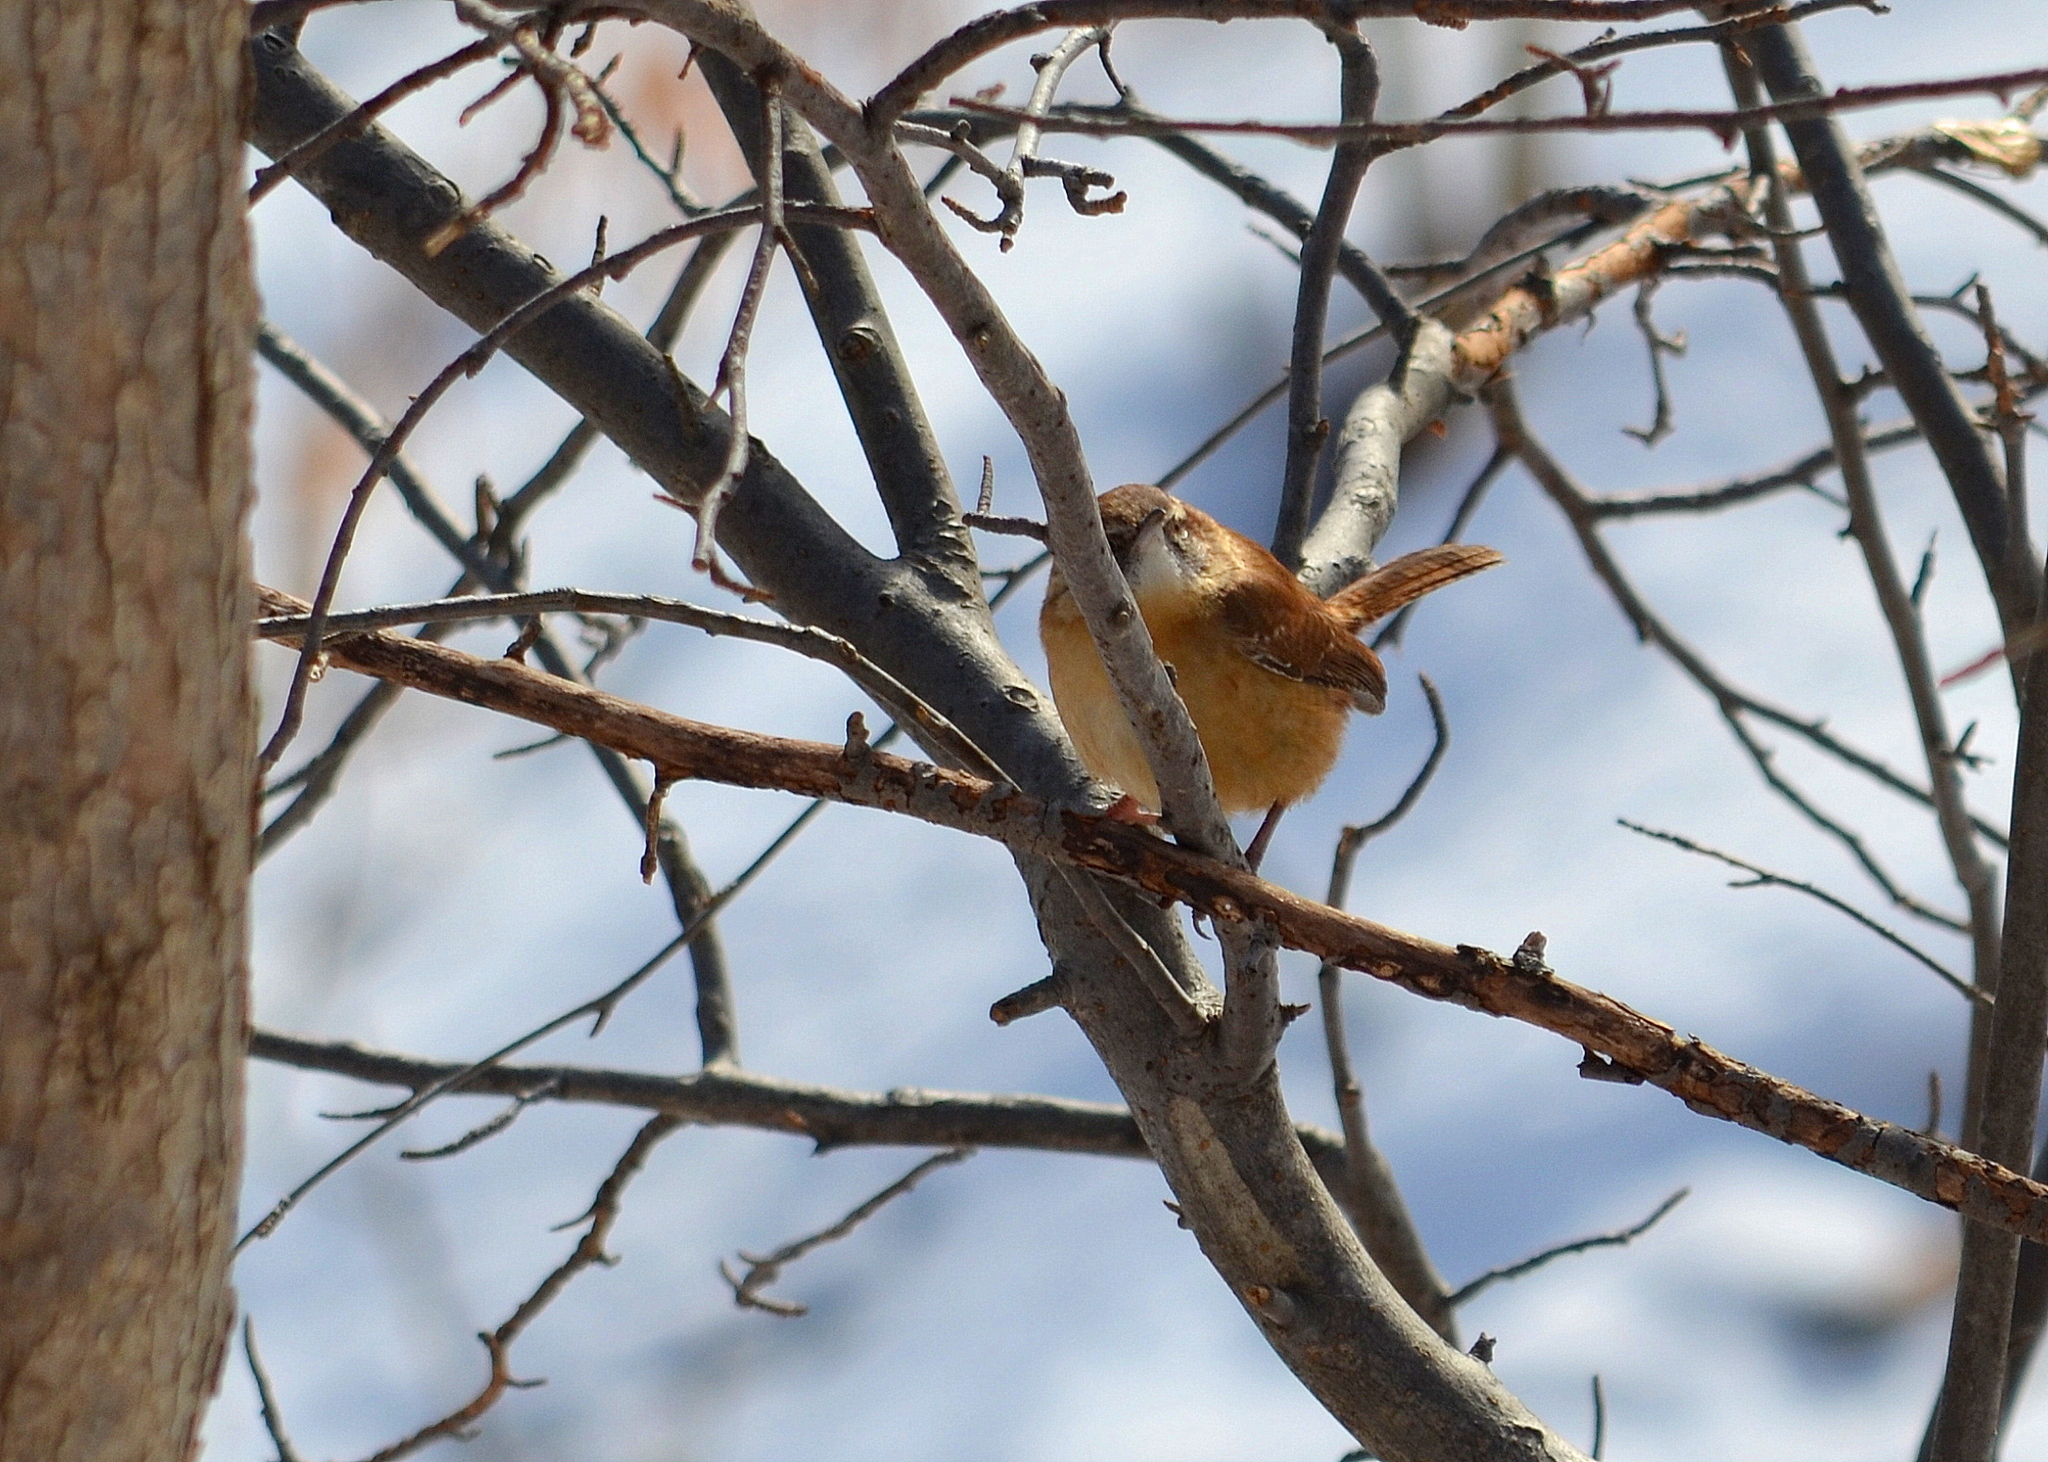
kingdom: Animalia
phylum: Chordata
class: Aves
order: Passeriformes
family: Troglodytidae
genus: Thryothorus
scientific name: Thryothorus ludovicianus
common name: Carolina wren
